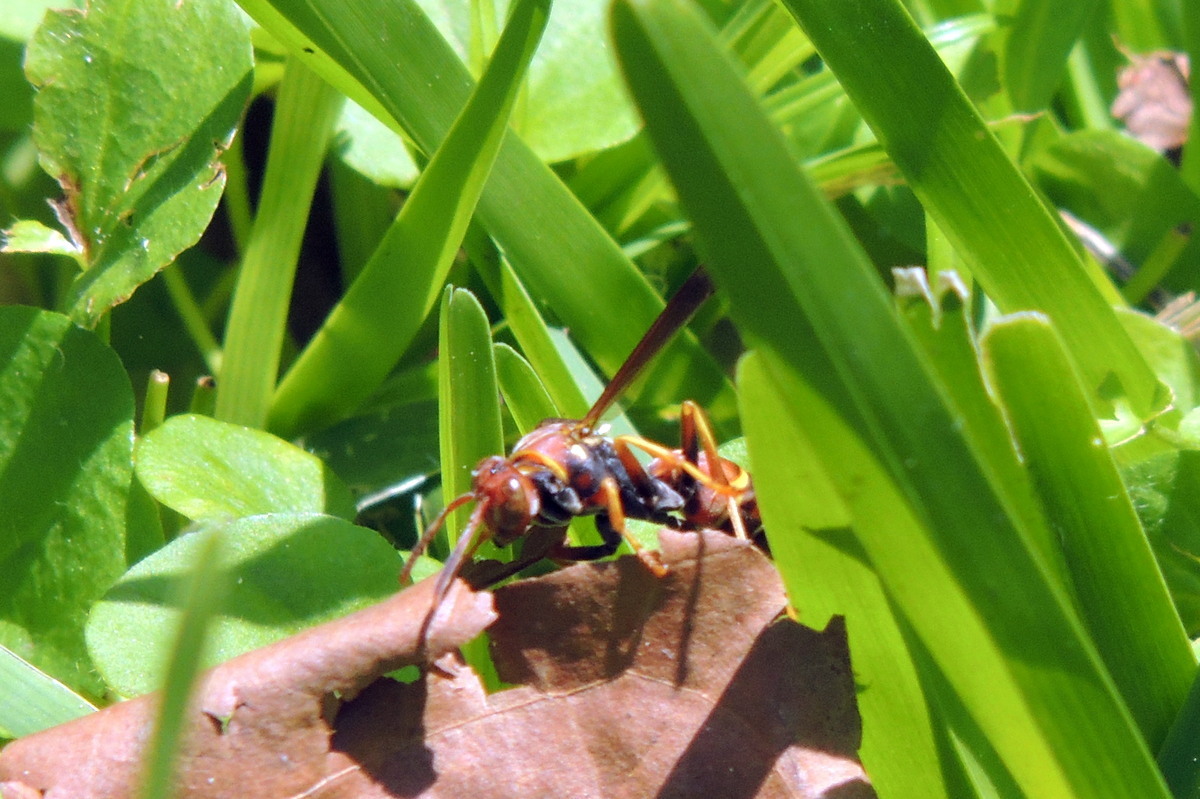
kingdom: Animalia
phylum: Arthropoda
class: Insecta
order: Hymenoptera
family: Vespidae
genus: Fuscopolistes
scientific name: Fuscopolistes
